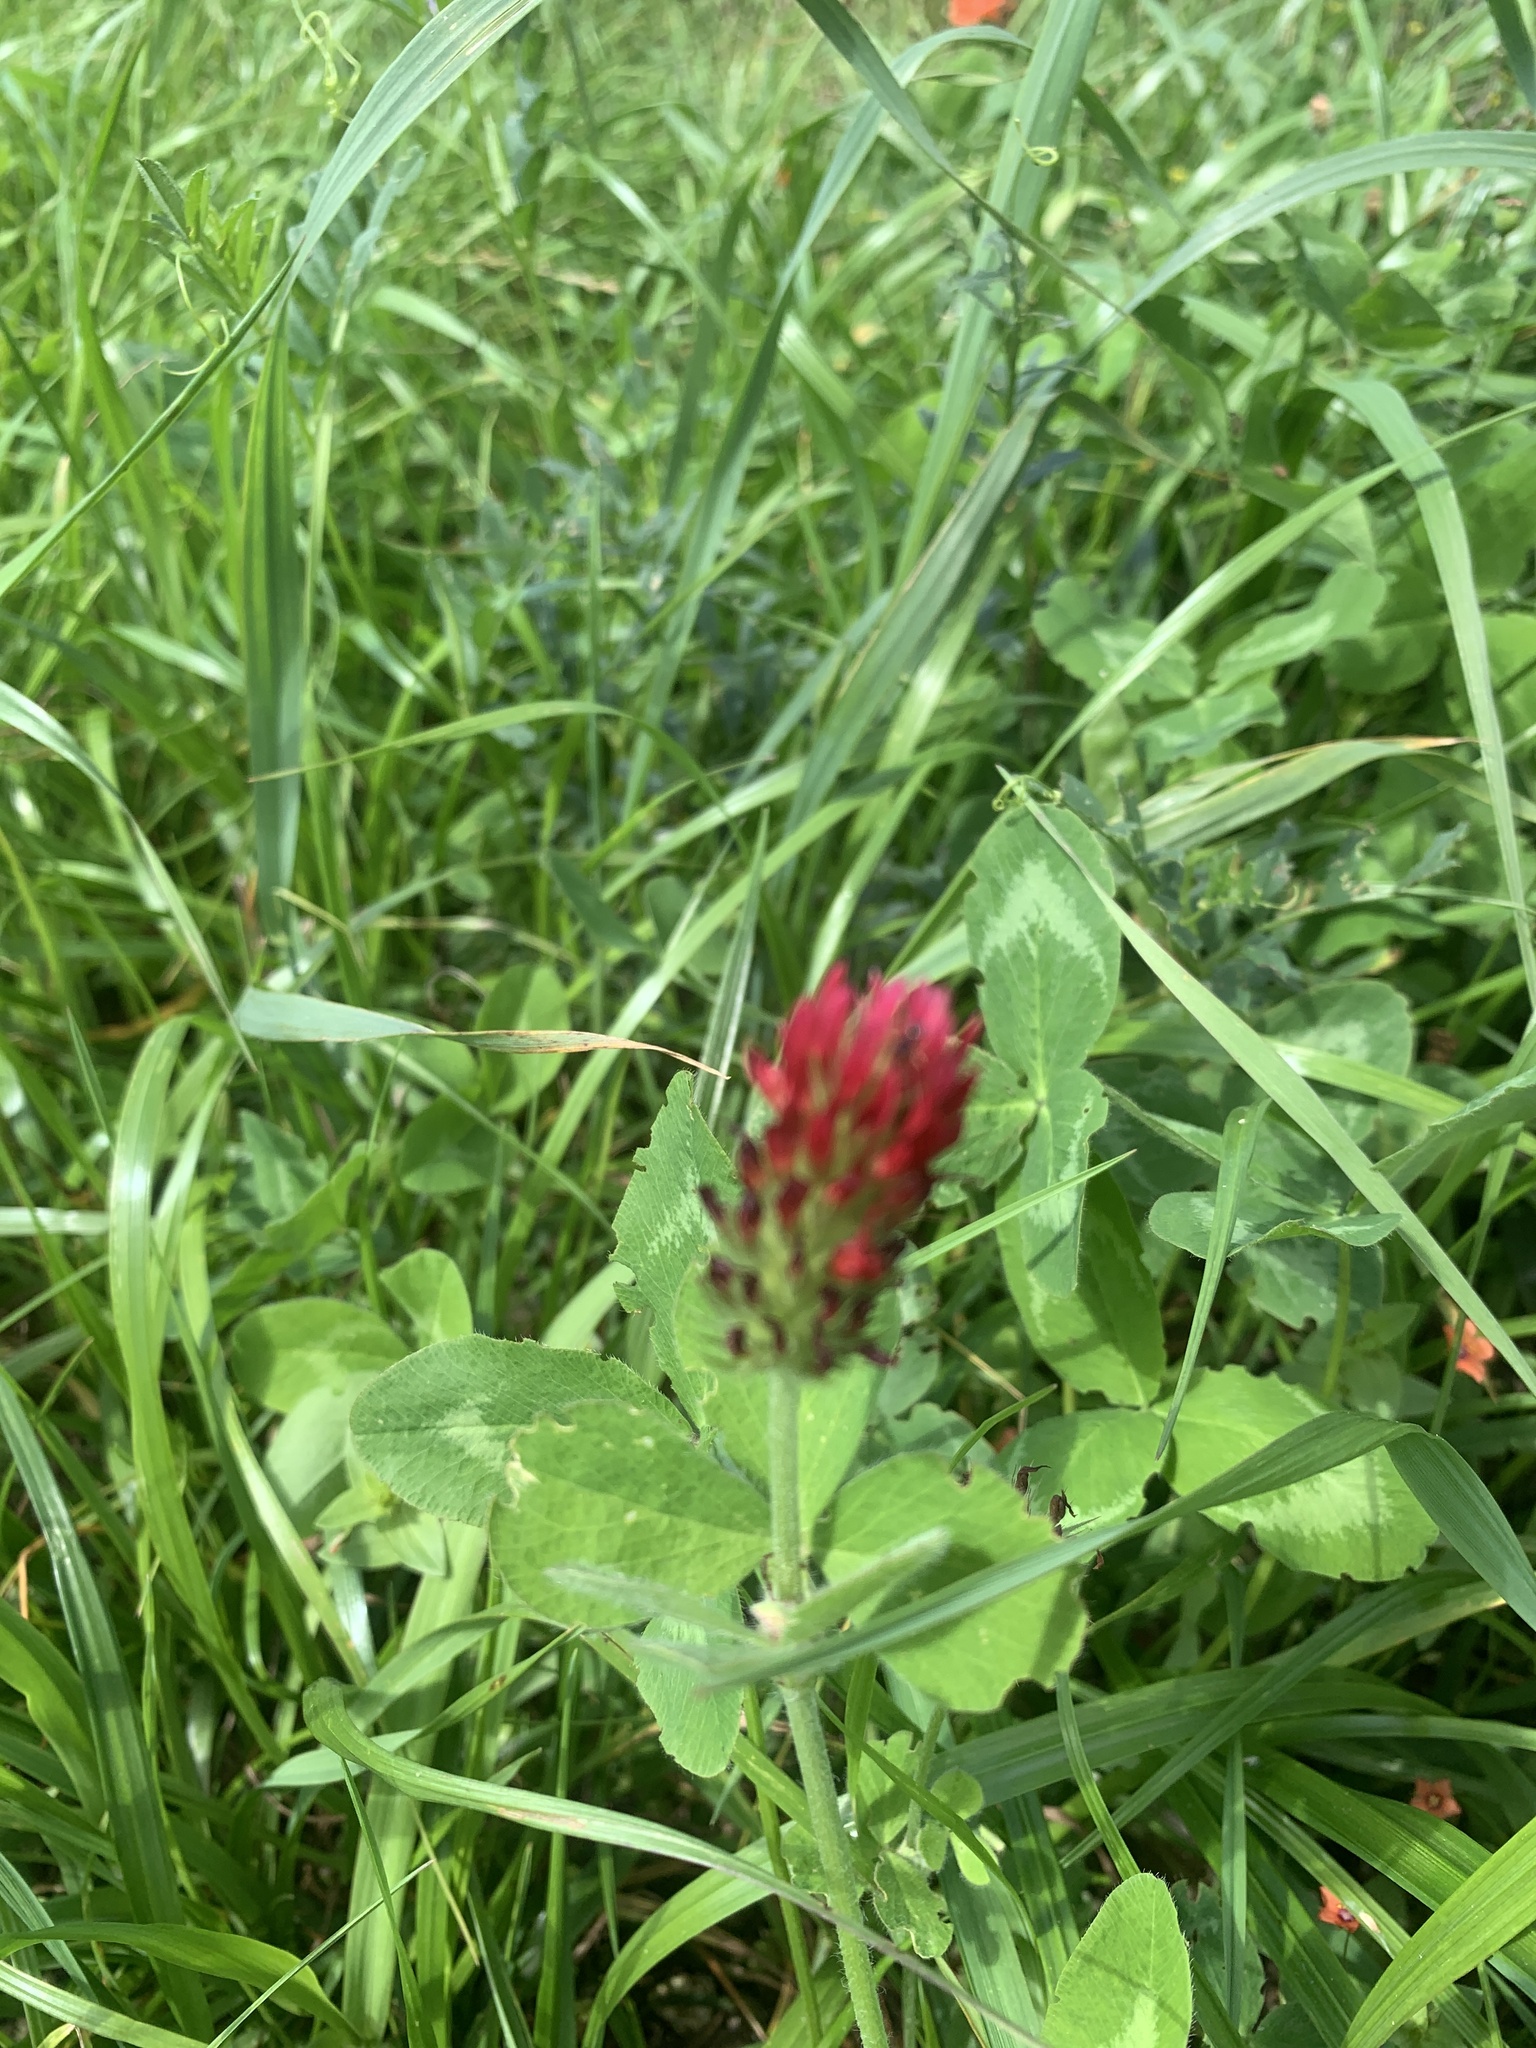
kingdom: Plantae
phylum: Tracheophyta
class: Magnoliopsida
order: Fabales
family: Fabaceae
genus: Trifolium
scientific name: Trifolium incarnatum
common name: Crimson clover
